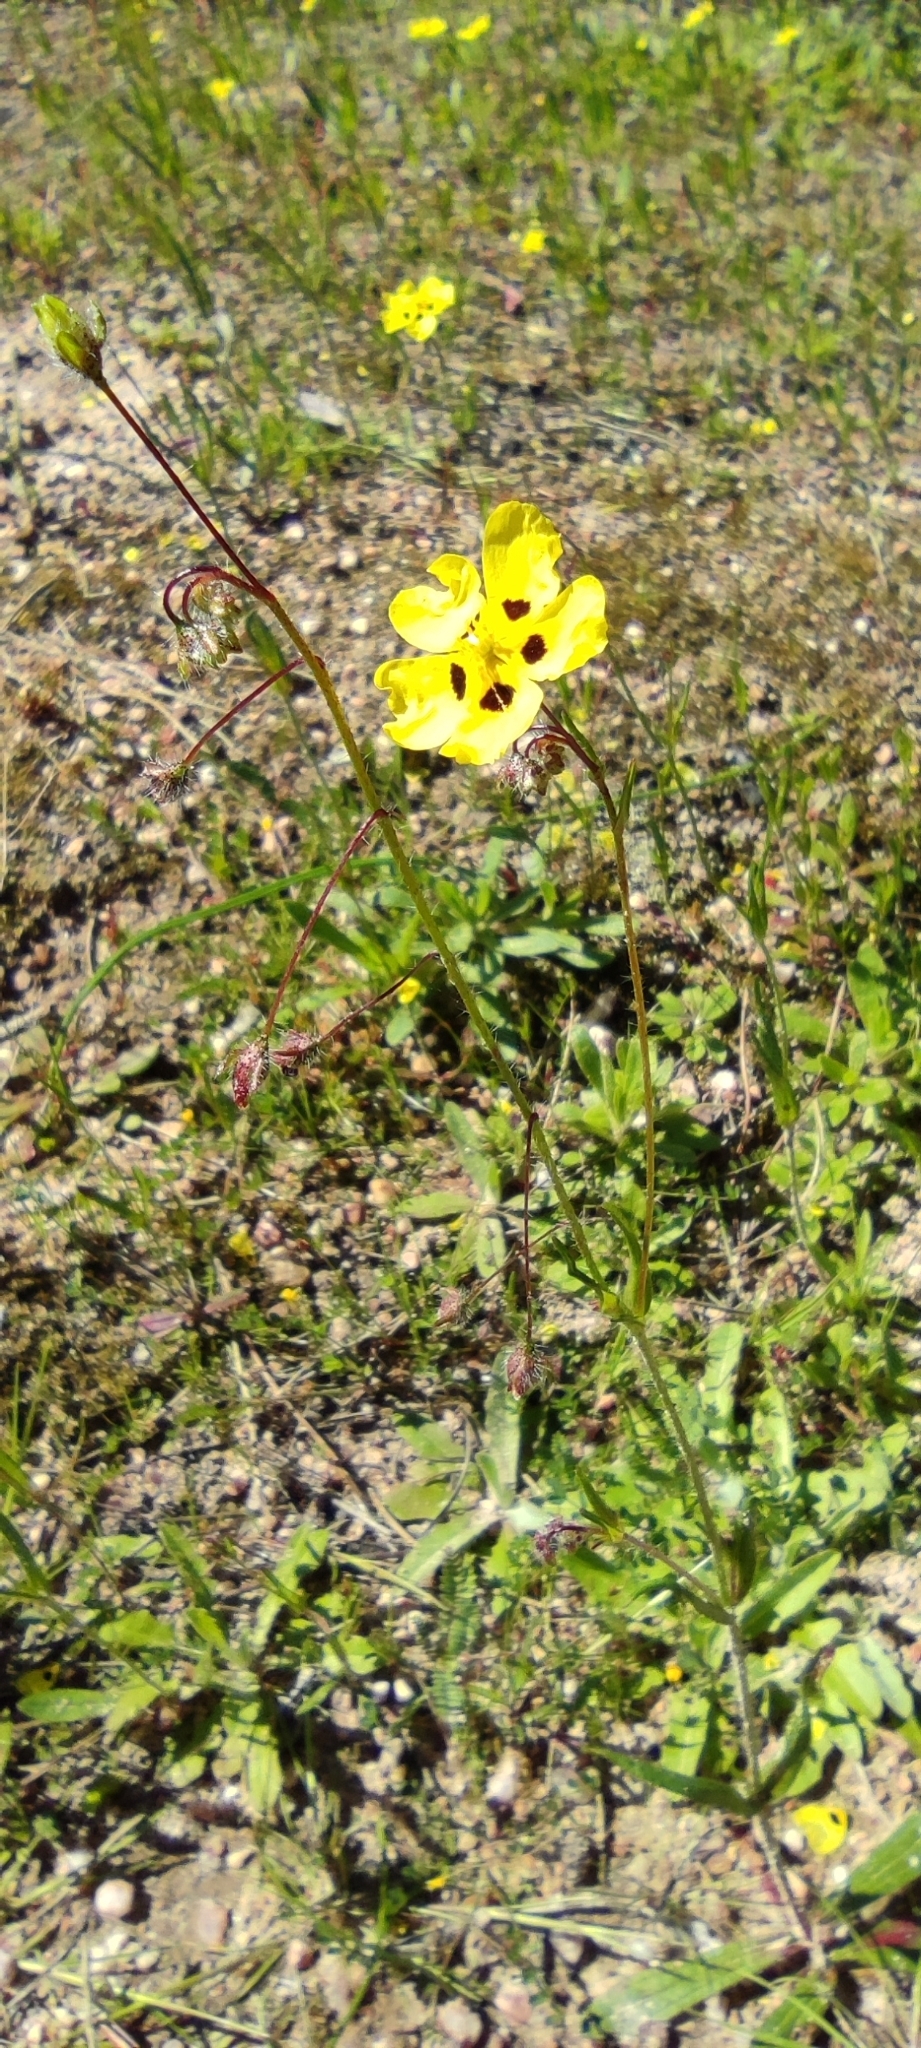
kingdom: Plantae
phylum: Tracheophyta
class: Magnoliopsida
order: Malvales
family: Cistaceae
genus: Tuberaria
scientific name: Tuberaria guttata
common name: Spotted rock-rose
